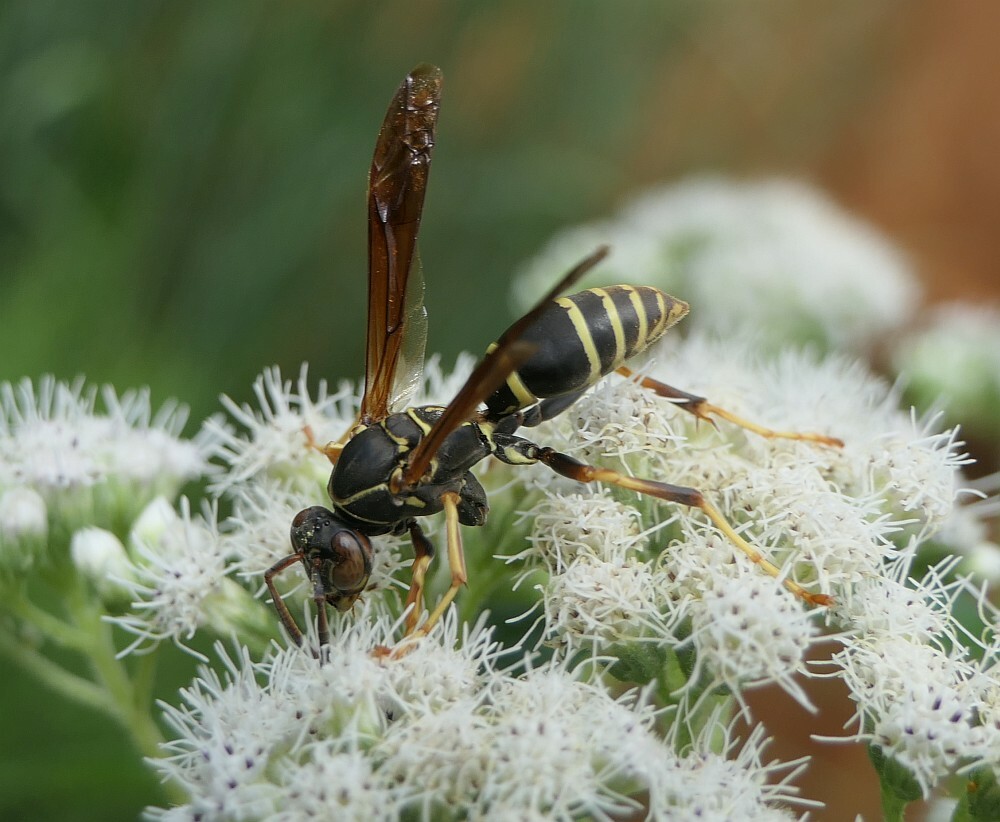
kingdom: Animalia
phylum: Arthropoda
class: Insecta
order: Hymenoptera
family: Eumenidae
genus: Polistes
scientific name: Polistes fuscatus
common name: Dark paper wasp
